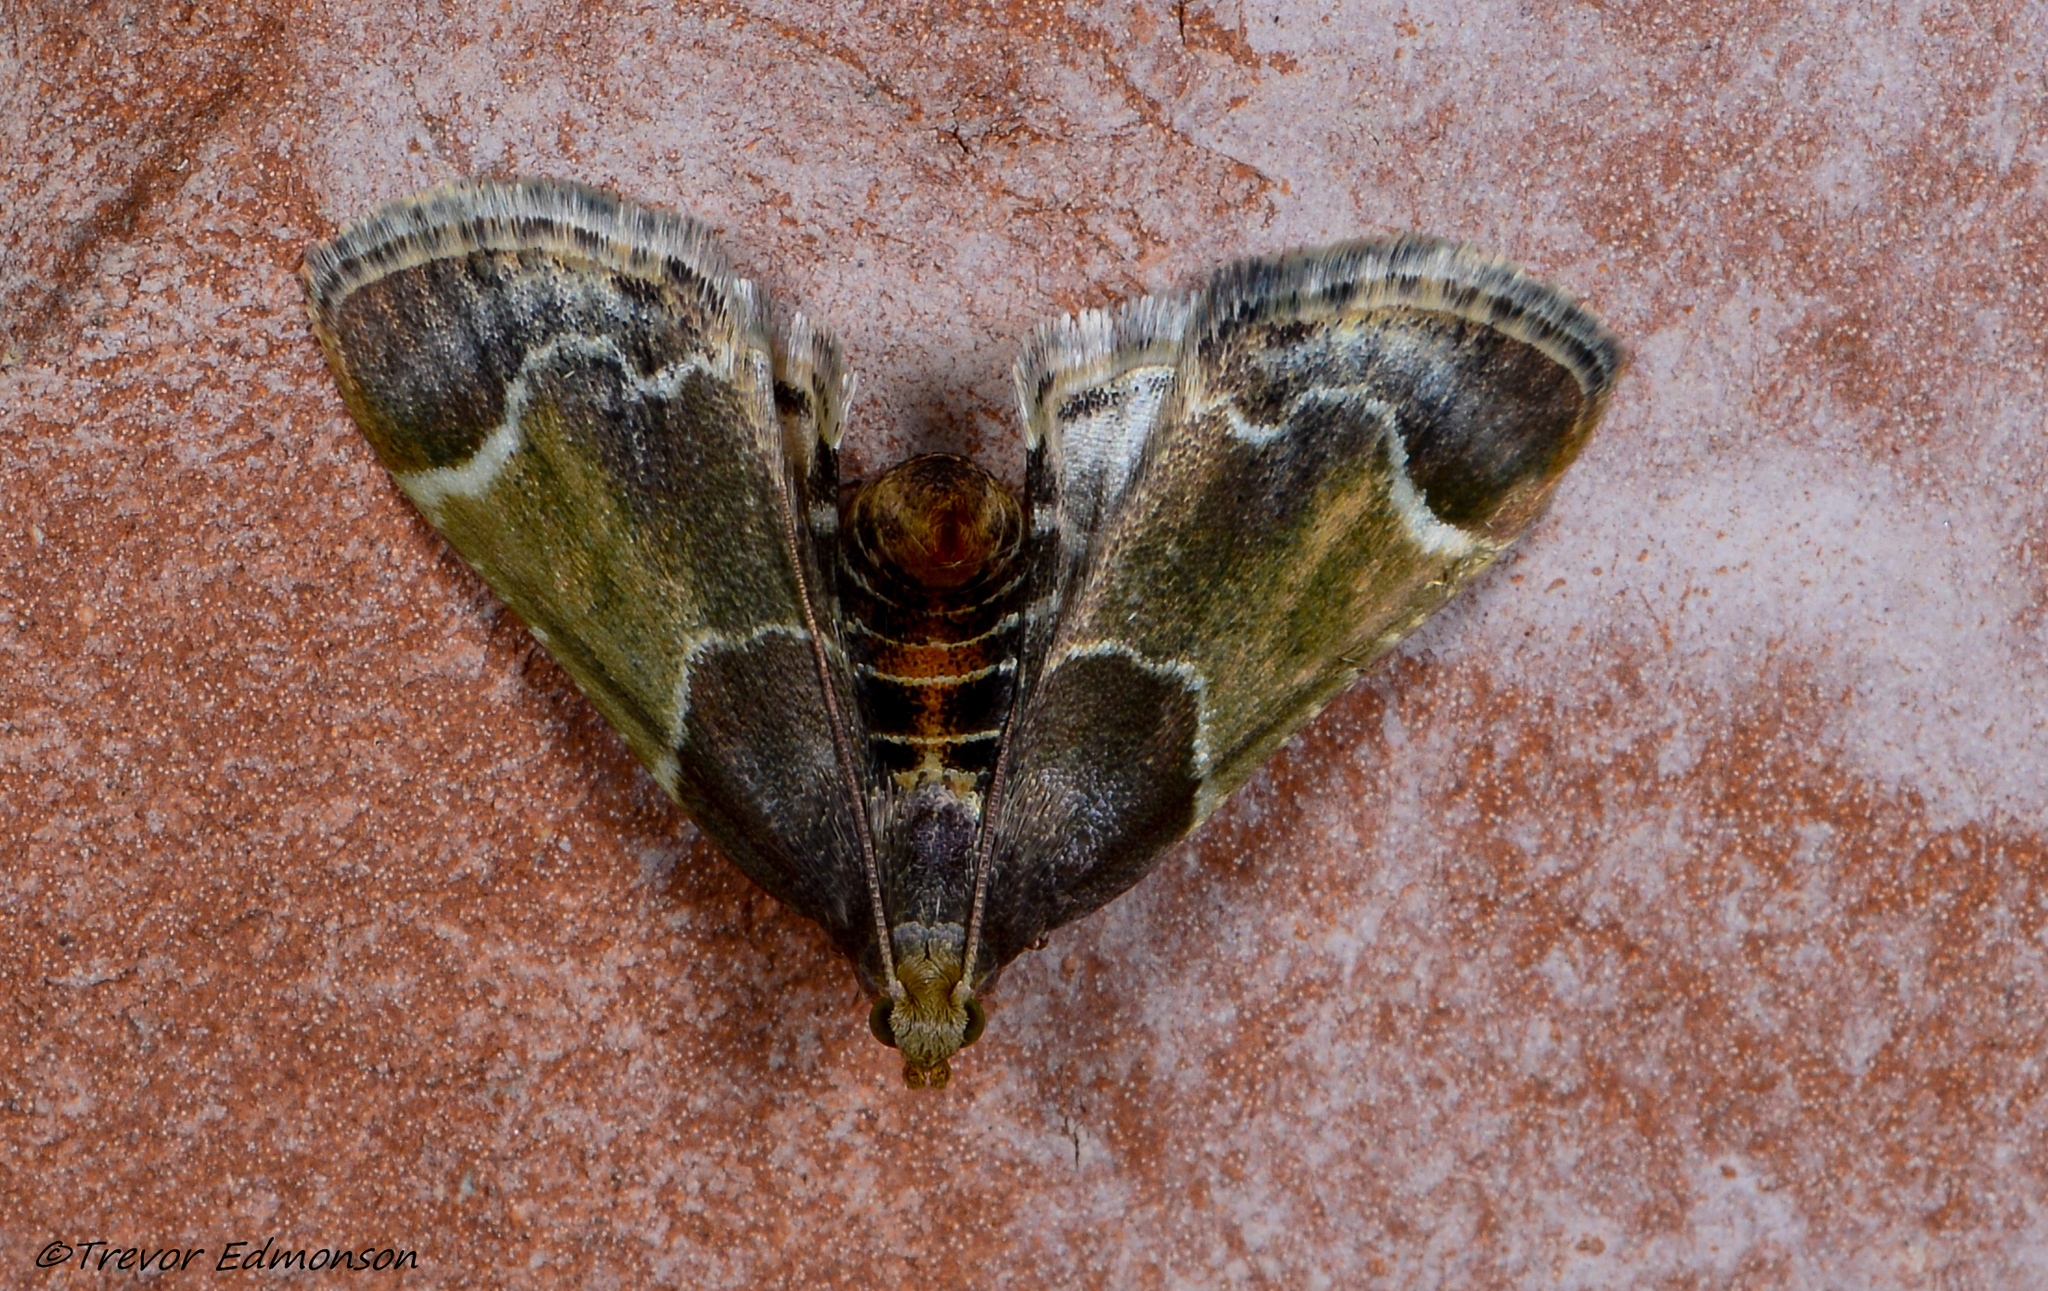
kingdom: Animalia
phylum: Arthropoda
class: Insecta
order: Lepidoptera
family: Pyralidae
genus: Pyralis
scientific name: Pyralis farinalis
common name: Meal moth
